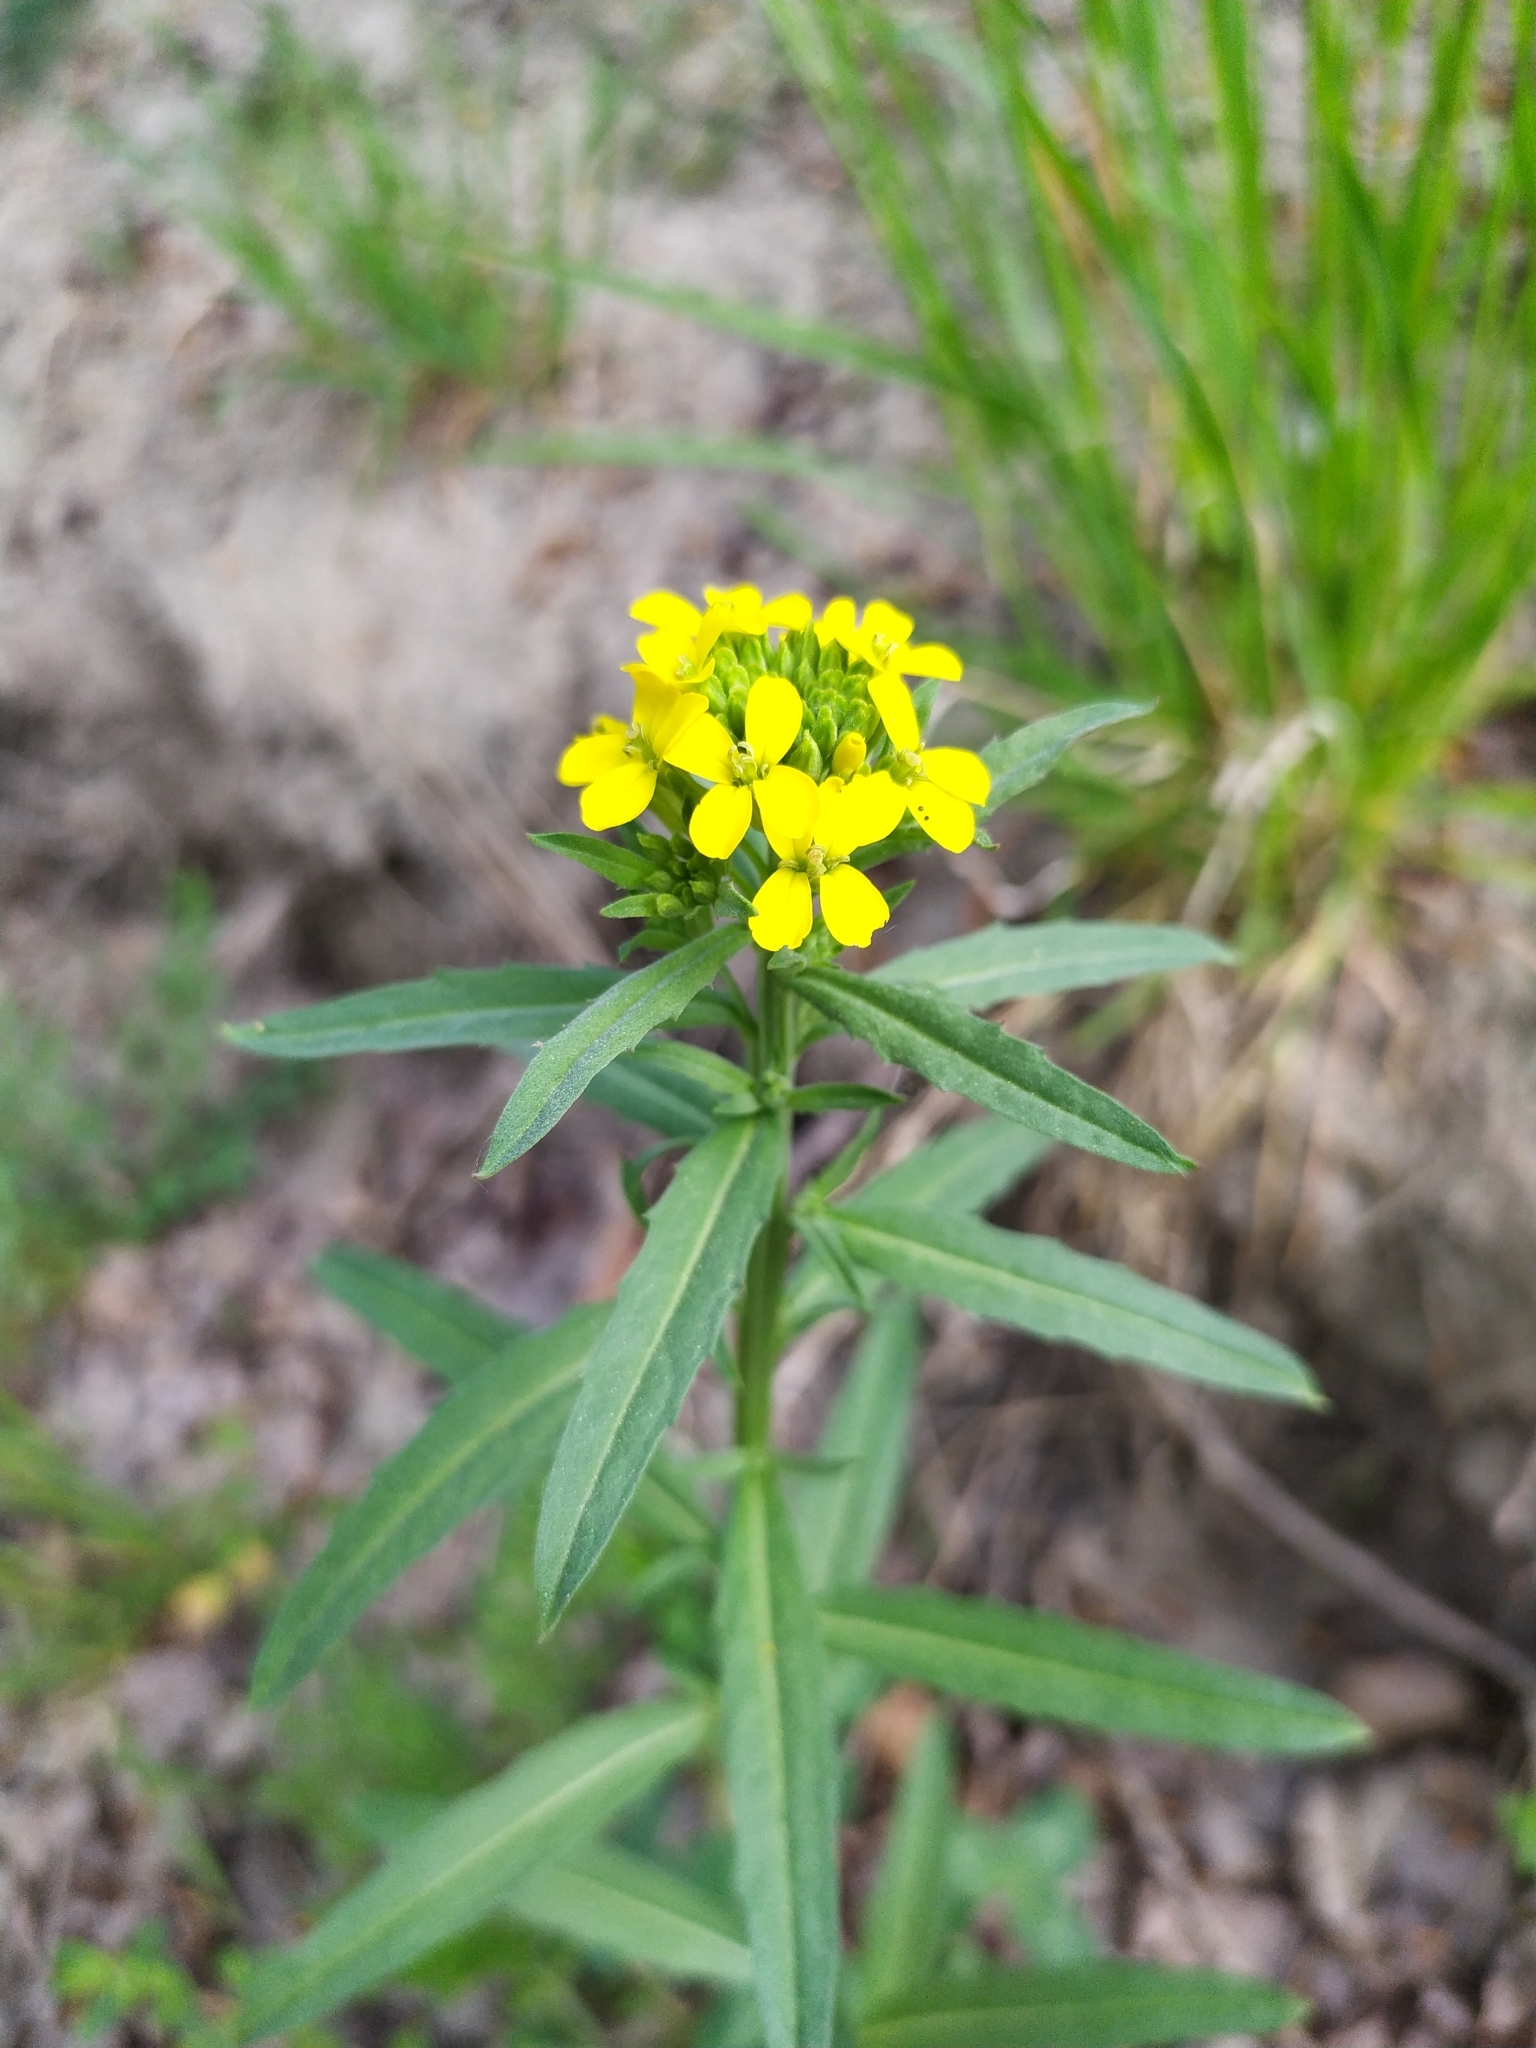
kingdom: Plantae
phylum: Tracheophyta
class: Magnoliopsida
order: Brassicales
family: Brassicaceae
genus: Erysimum
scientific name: Erysimum cheiranthoides
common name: Treacle mustard
